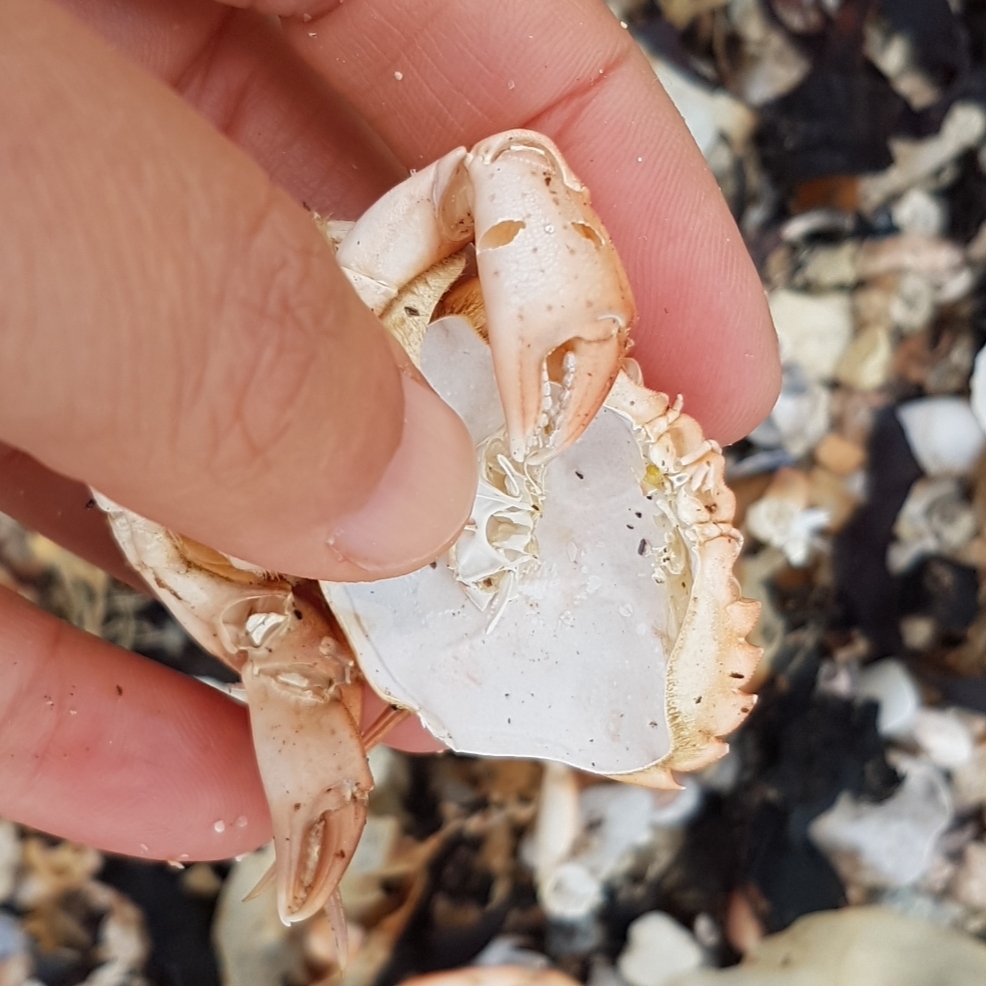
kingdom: Animalia
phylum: Arthropoda
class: Malacostraca
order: Decapoda
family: Carcinidae
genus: Carcinus
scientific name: Carcinus maenas
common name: European green crab
